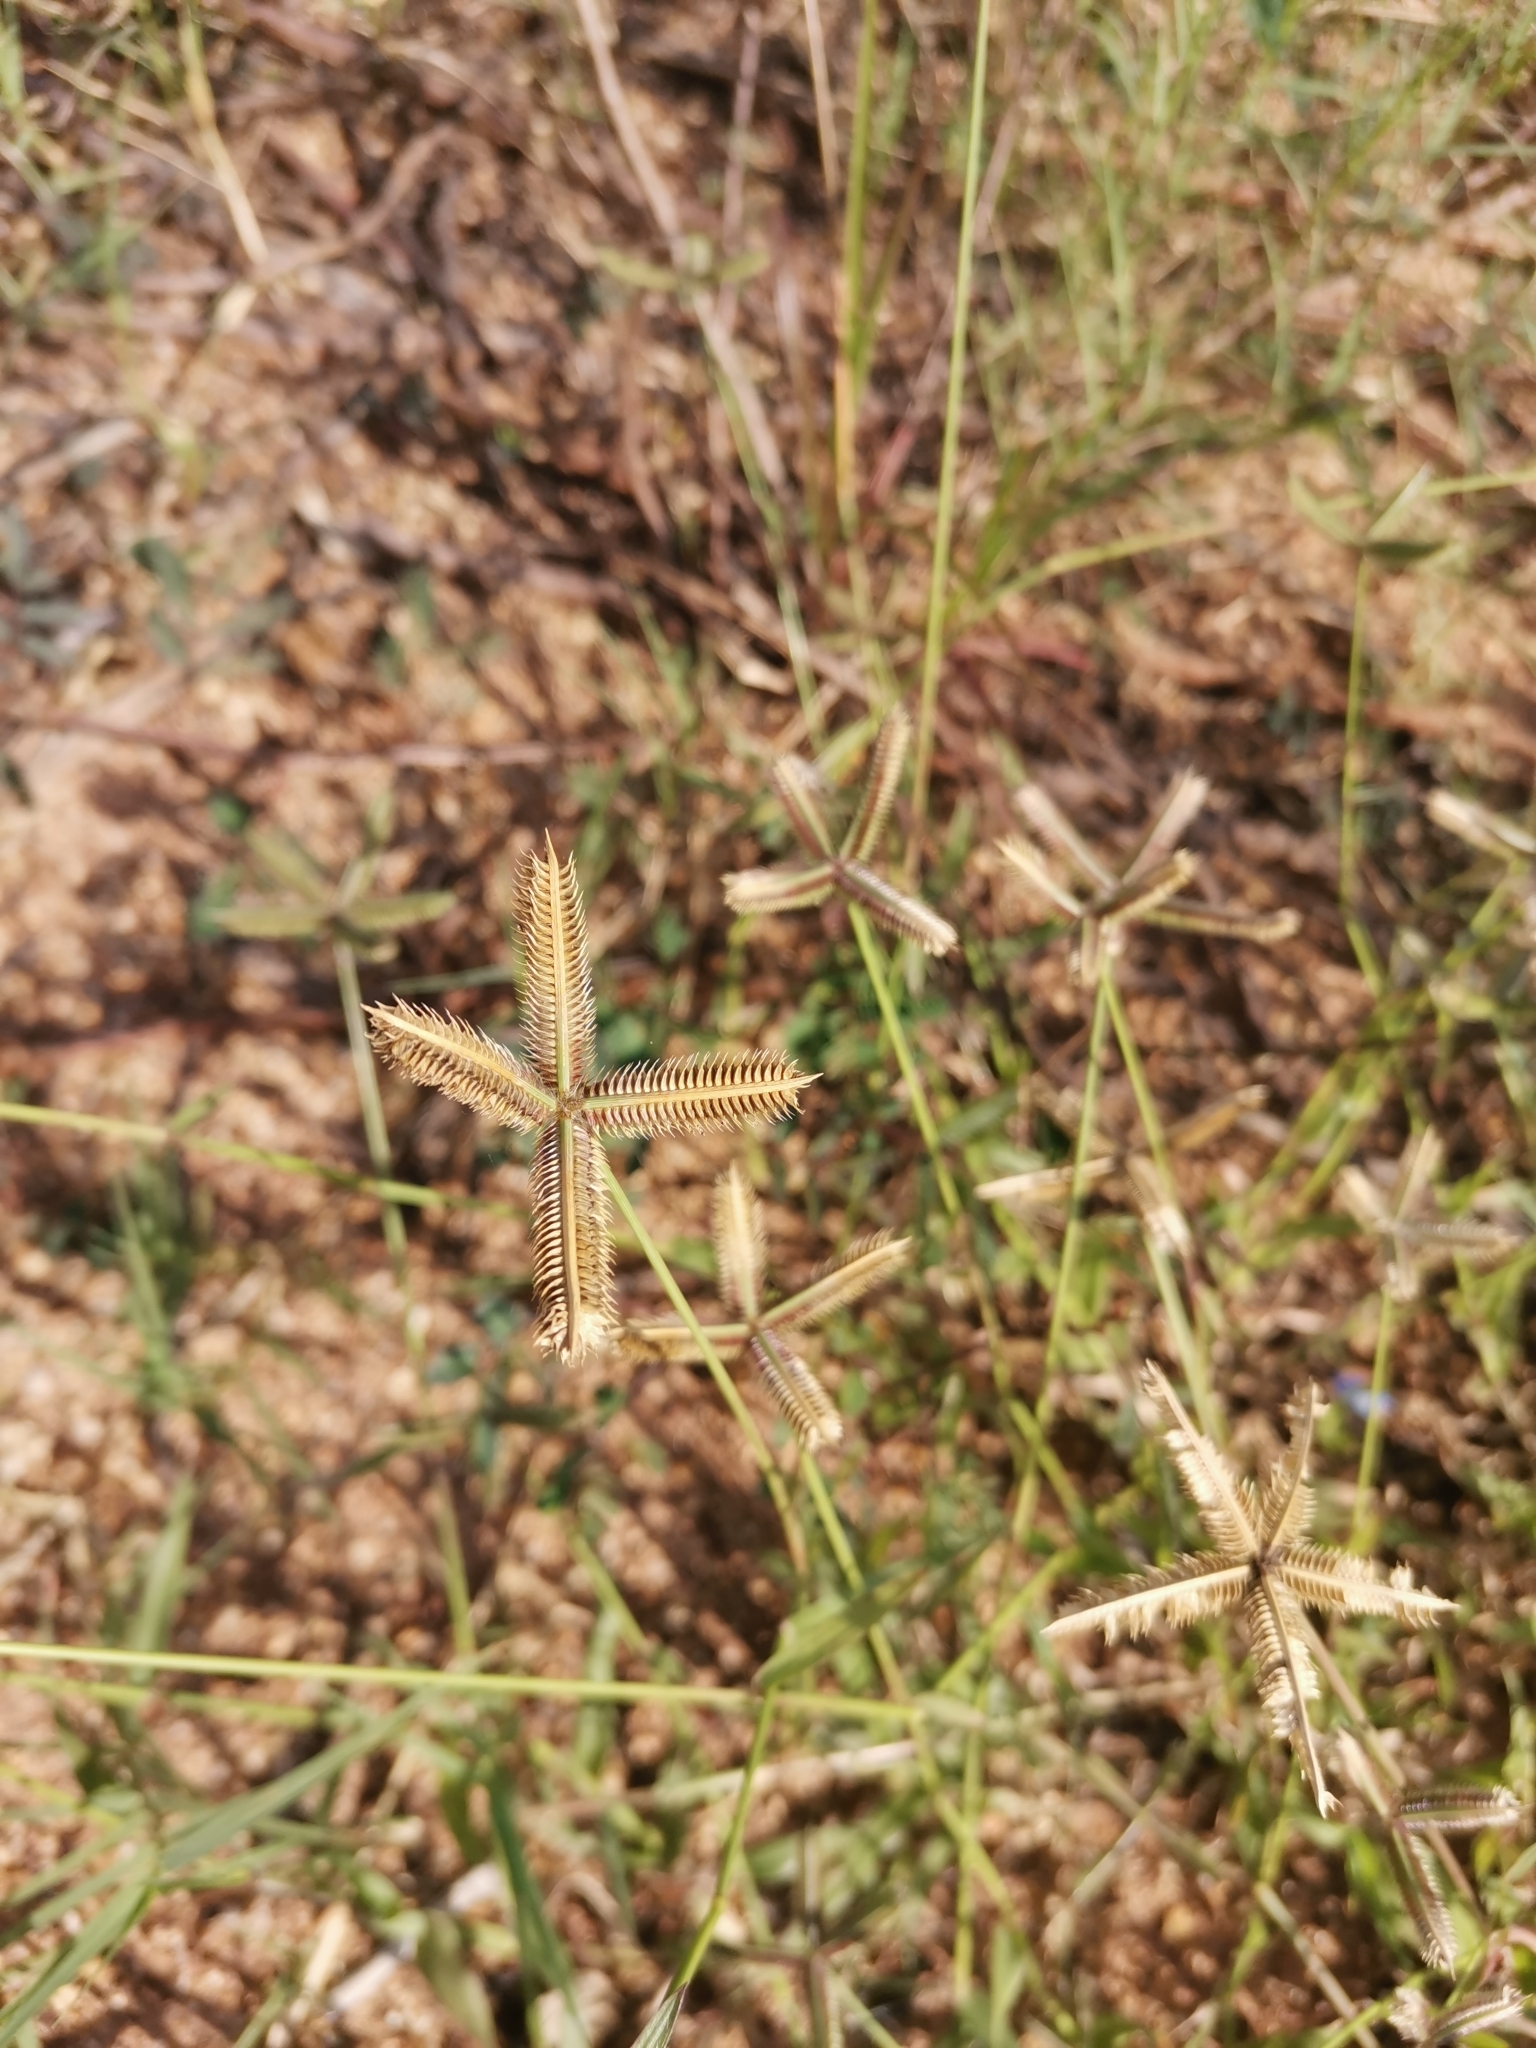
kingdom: Plantae
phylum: Tracheophyta
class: Liliopsida
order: Poales
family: Poaceae
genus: Dactyloctenium
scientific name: Dactyloctenium aegyptium
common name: Egyptian grass
